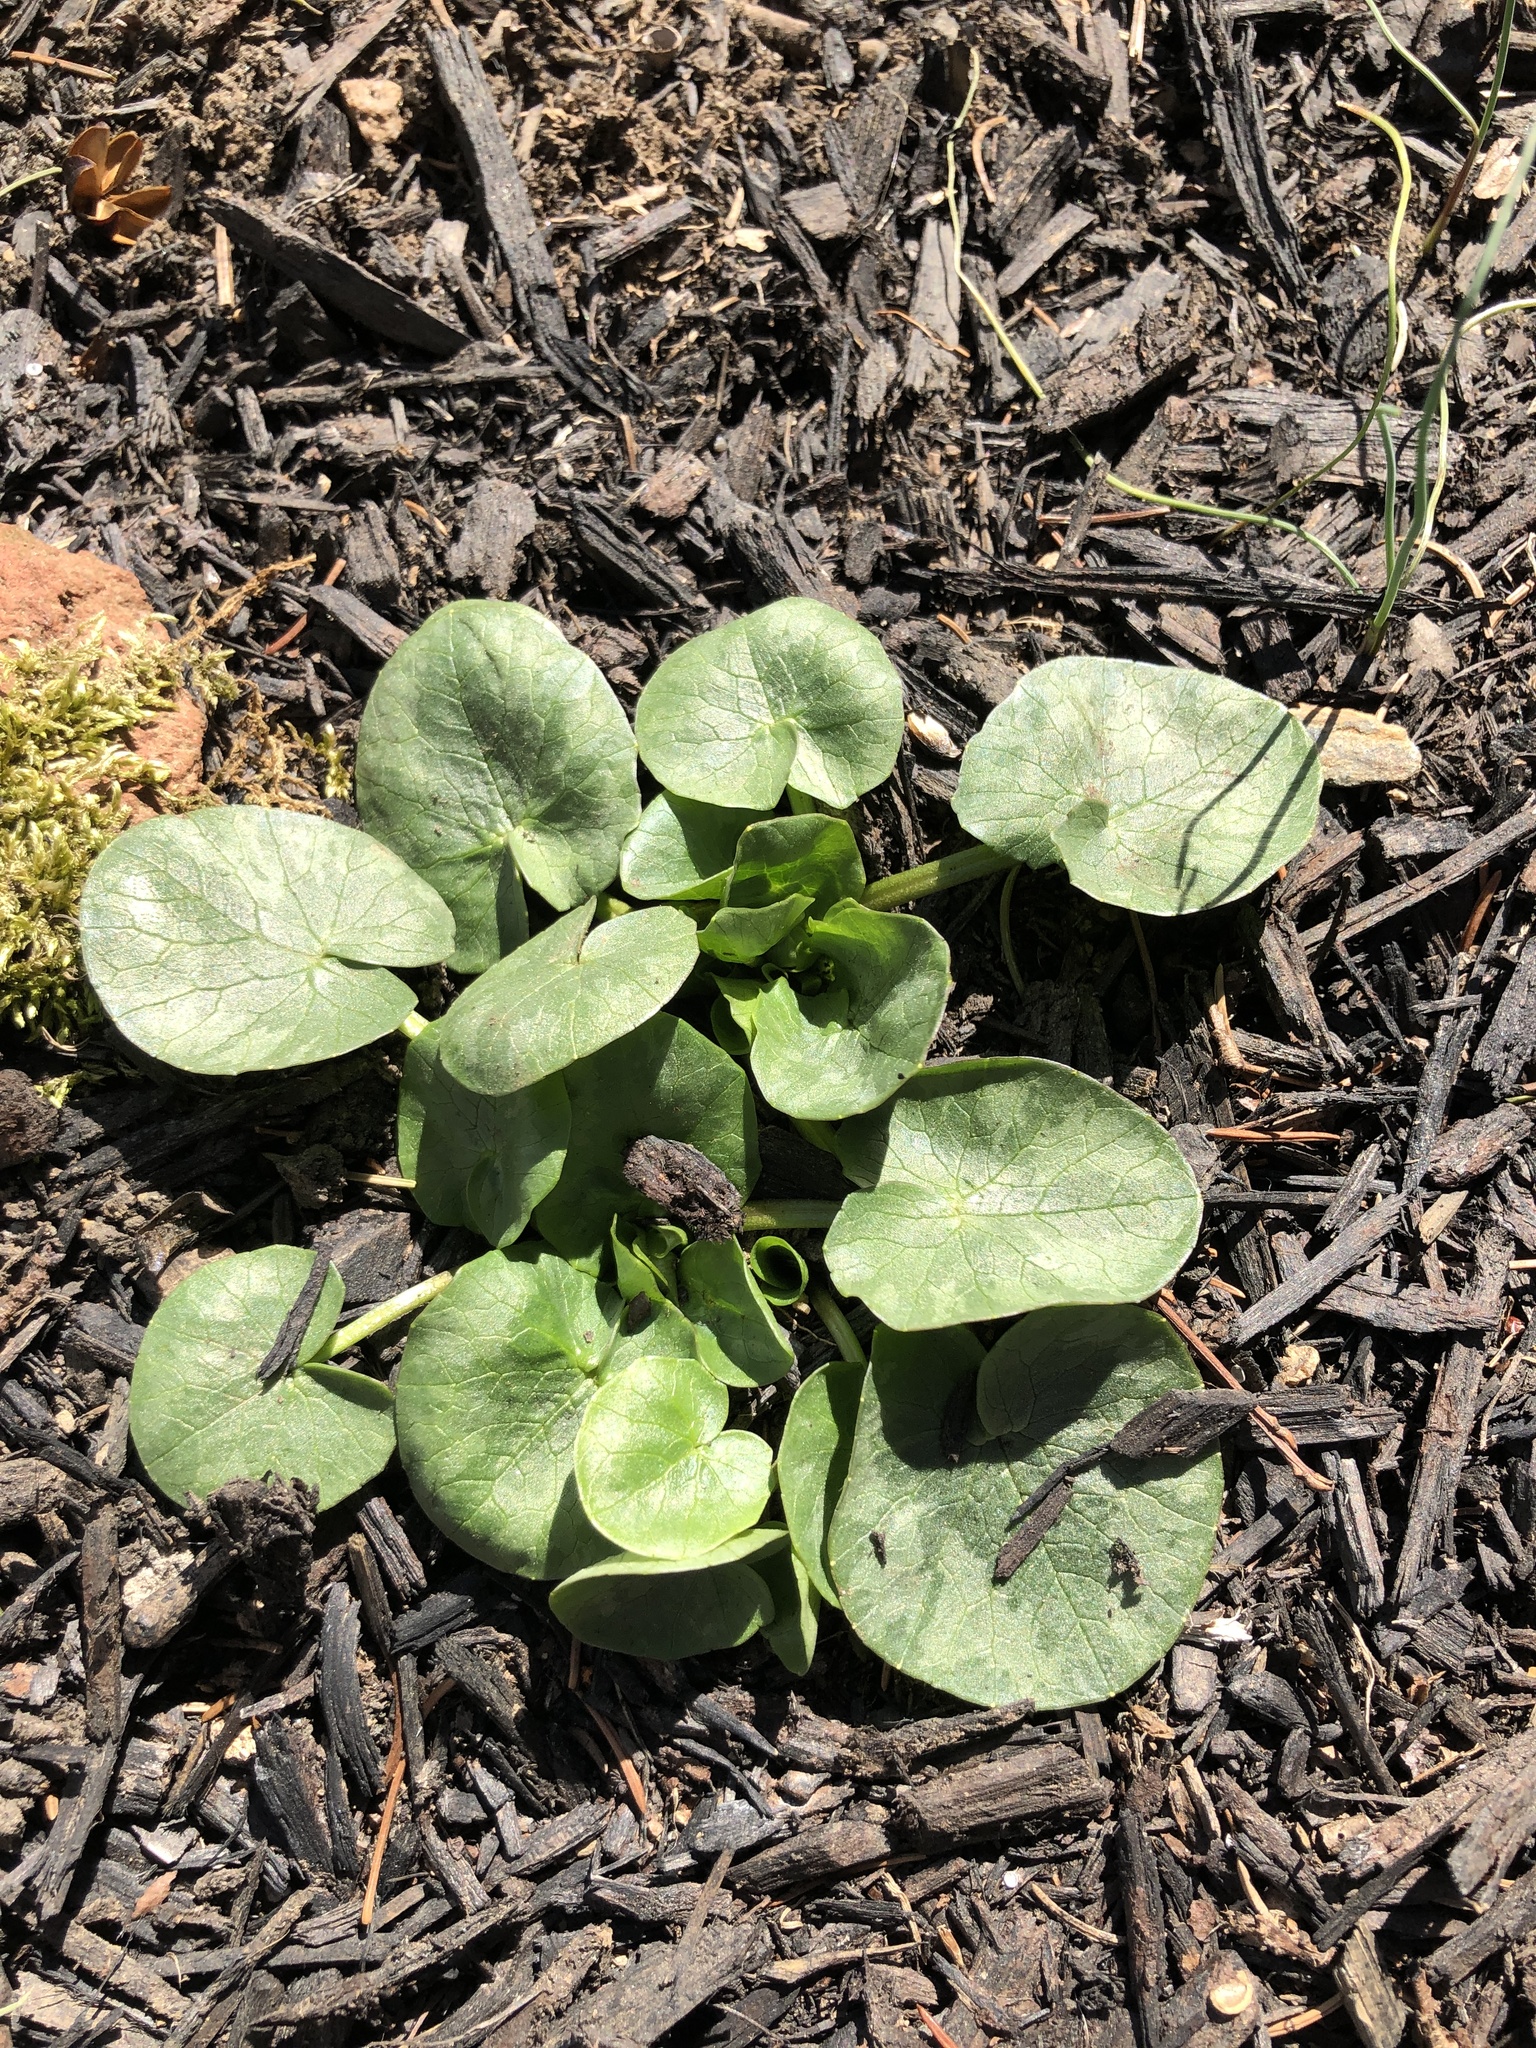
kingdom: Plantae
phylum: Tracheophyta
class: Magnoliopsida
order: Ranunculales
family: Ranunculaceae
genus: Ficaria
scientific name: Ficaria verna
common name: Lesser celandine
